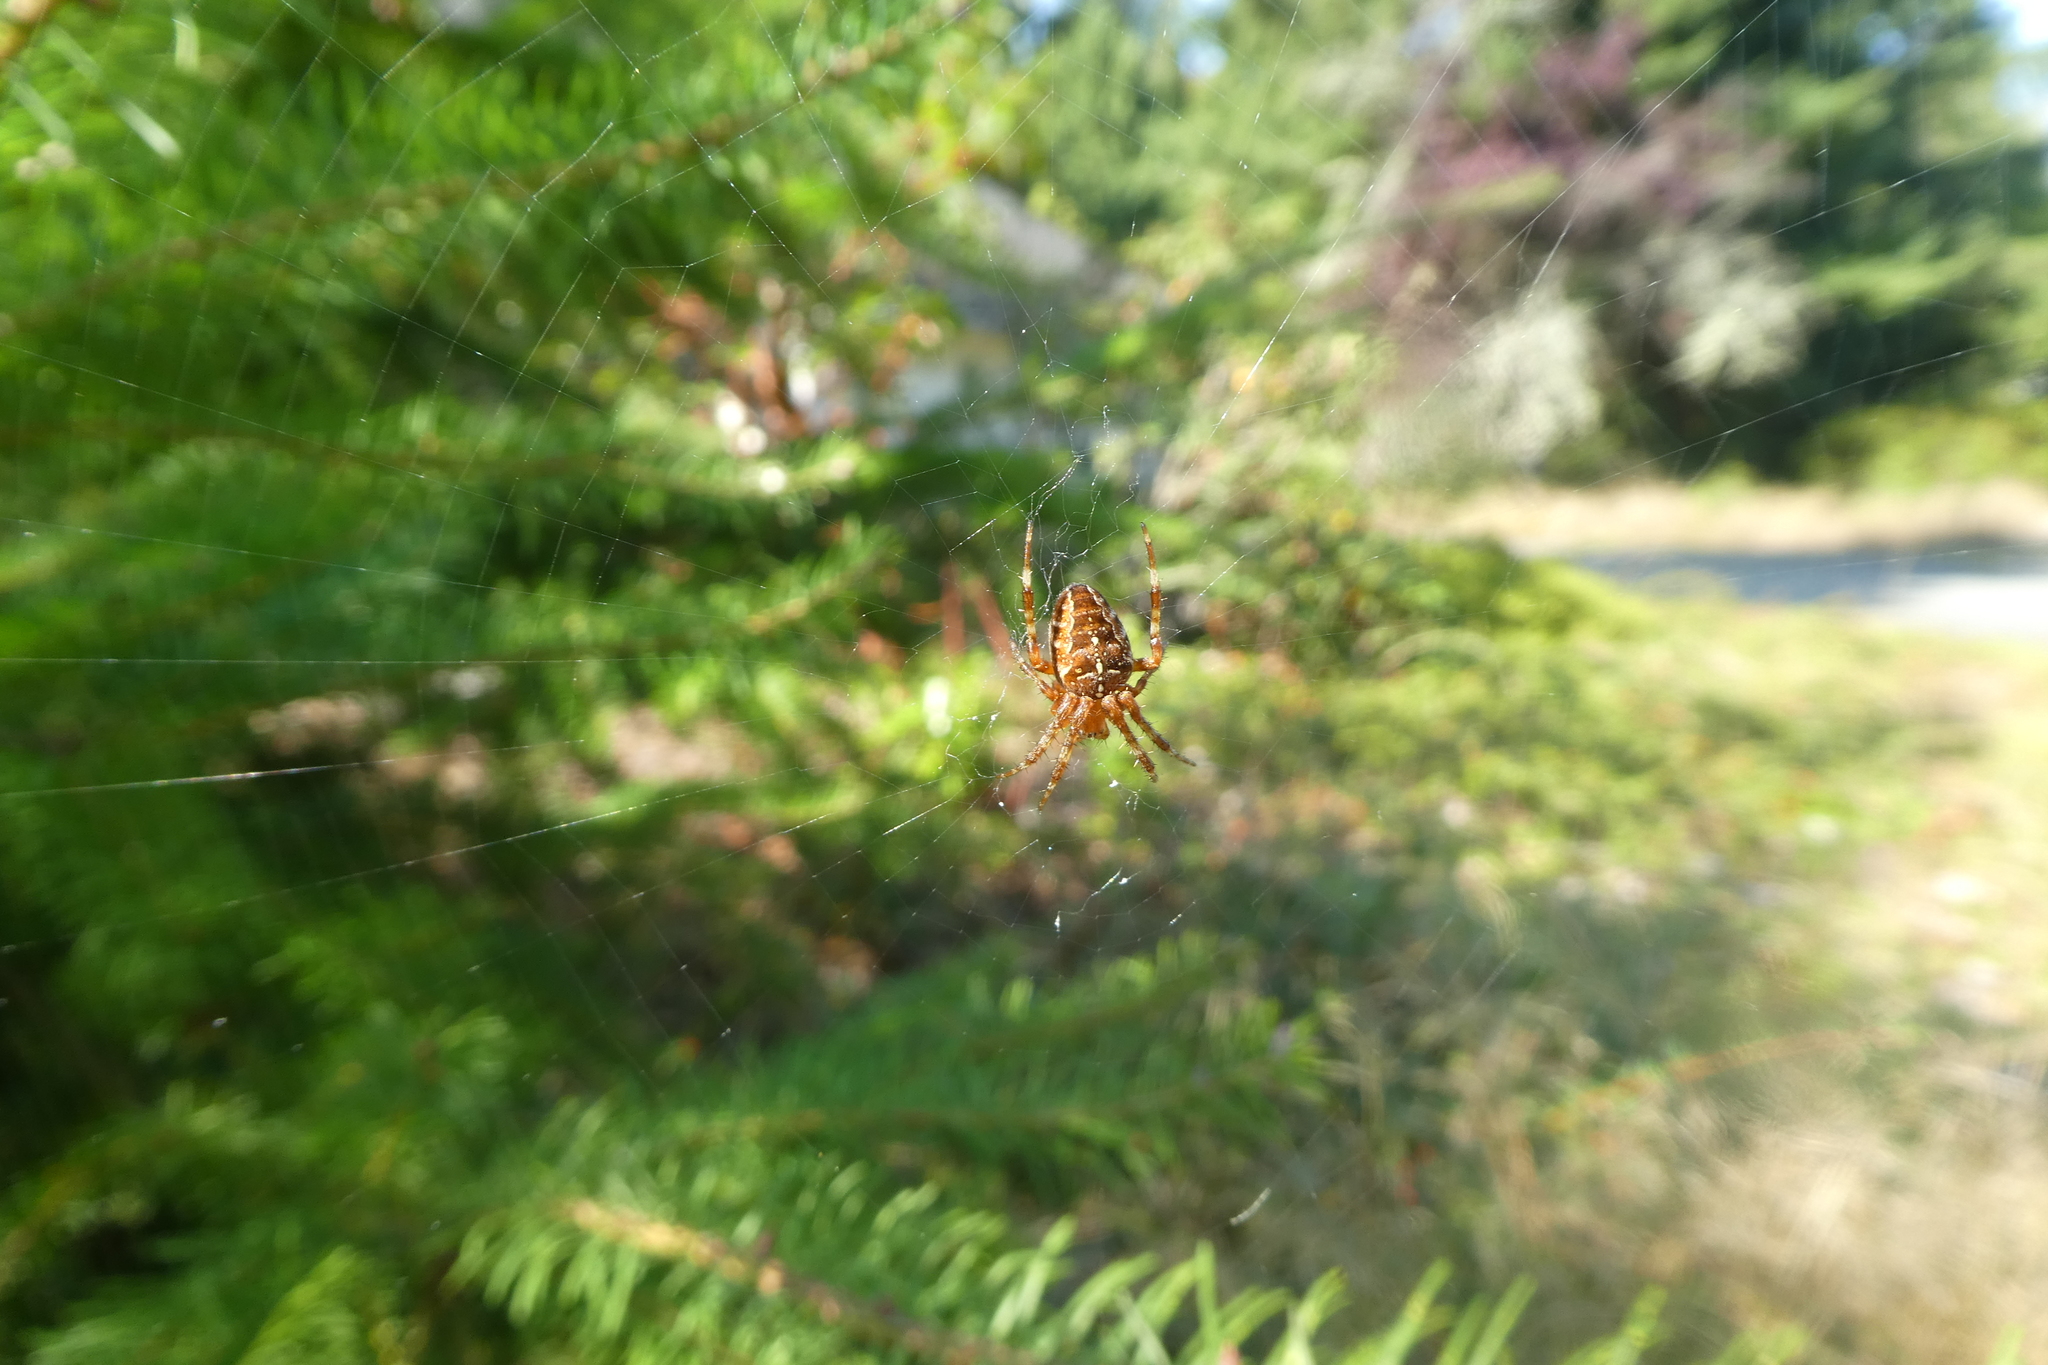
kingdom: Animalia
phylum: Arthropoda
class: Arachnida
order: Araneae
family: Araneidae
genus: Araneus
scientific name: Araneus diadematus
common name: Cross orbweaver
